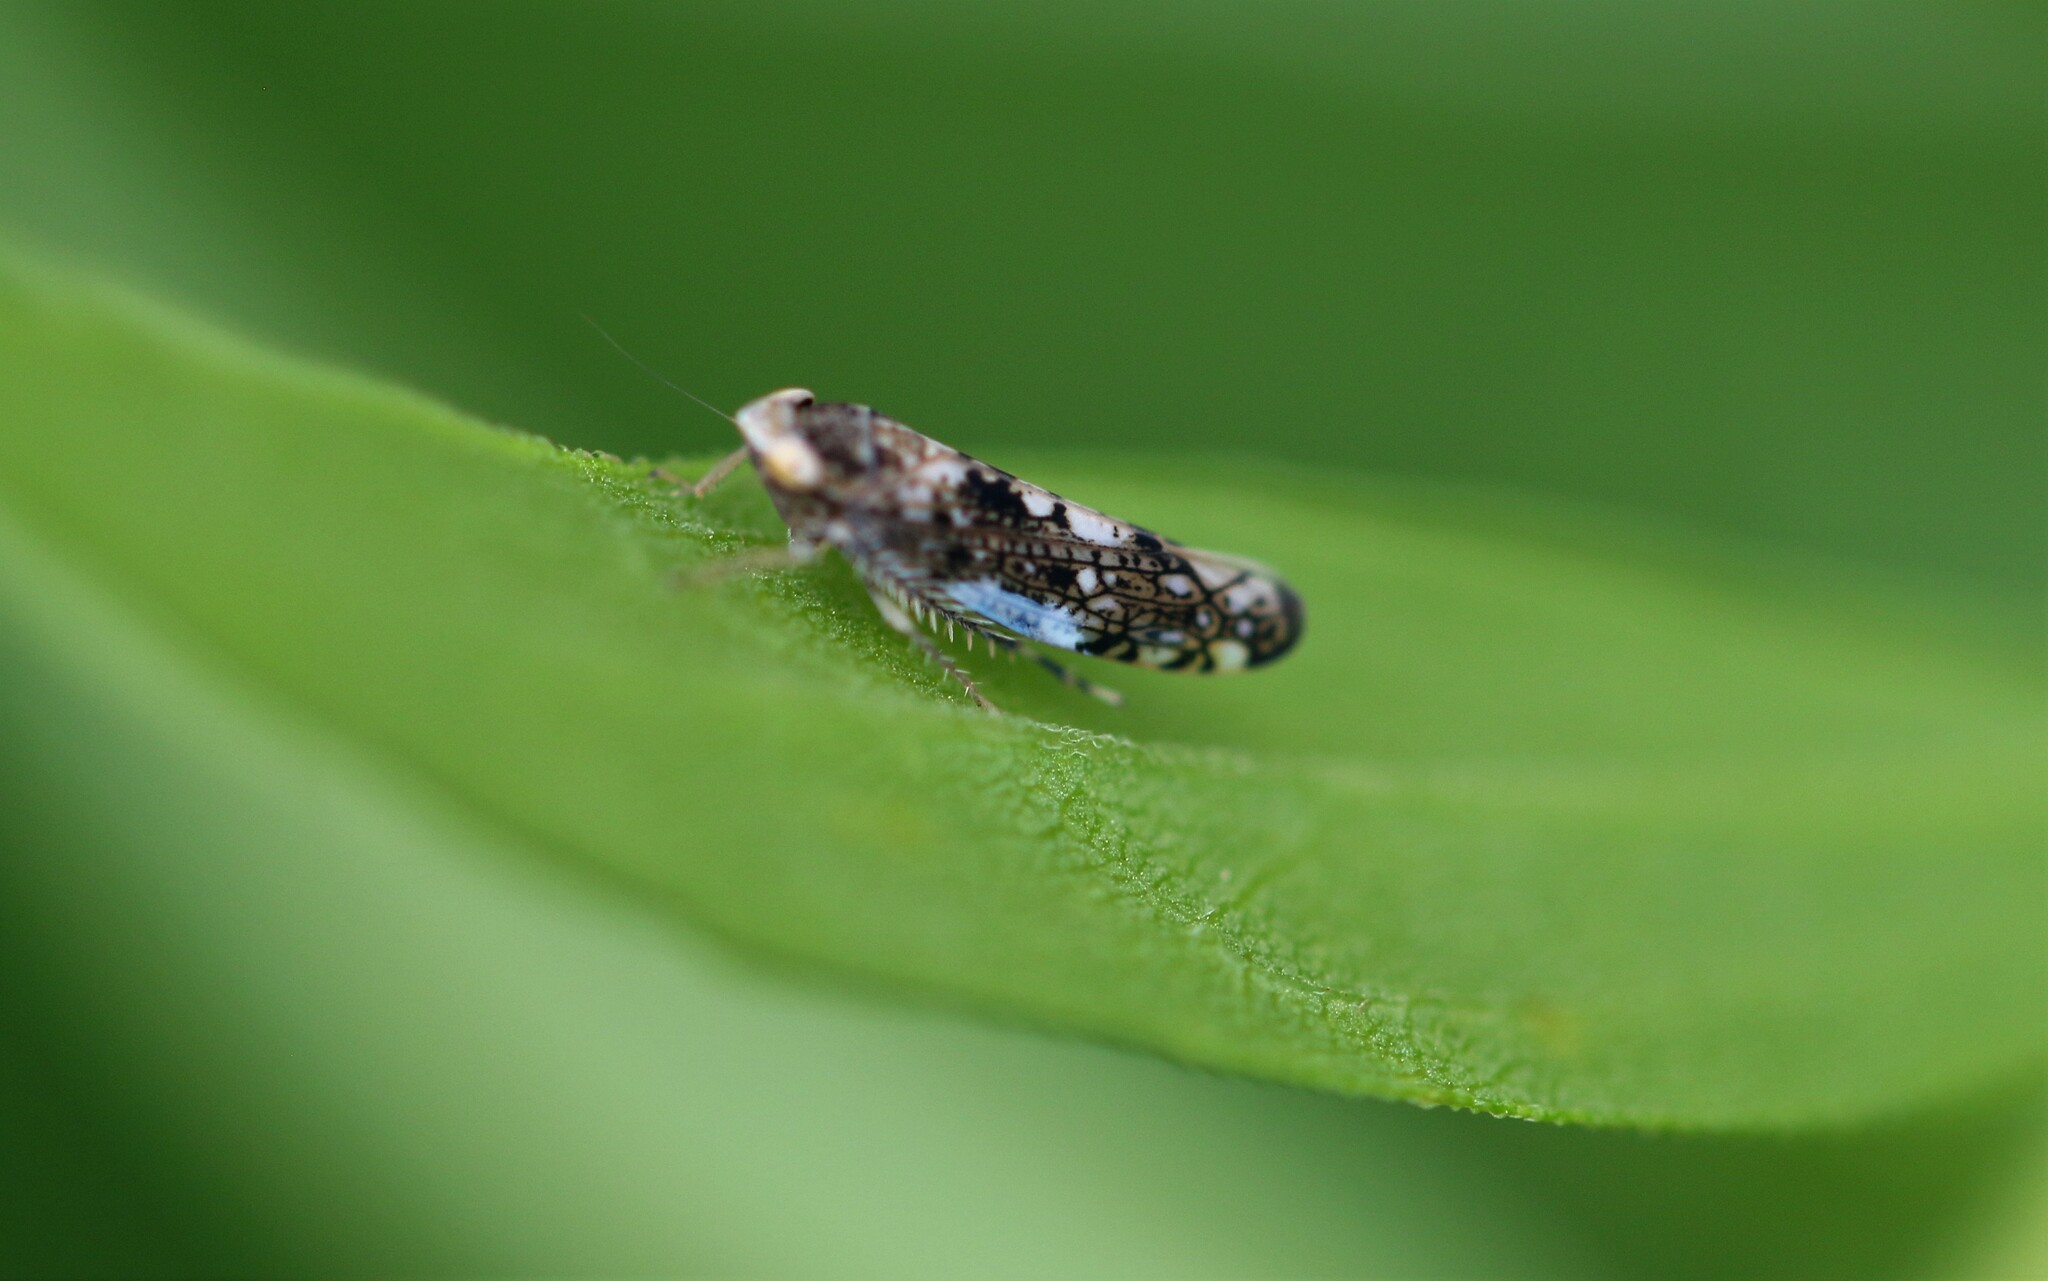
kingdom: Animalia
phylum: Arthropoda
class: Insecta
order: Hemiptera
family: Cicadellidae
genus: Prescottia
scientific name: Prescottia lobata
